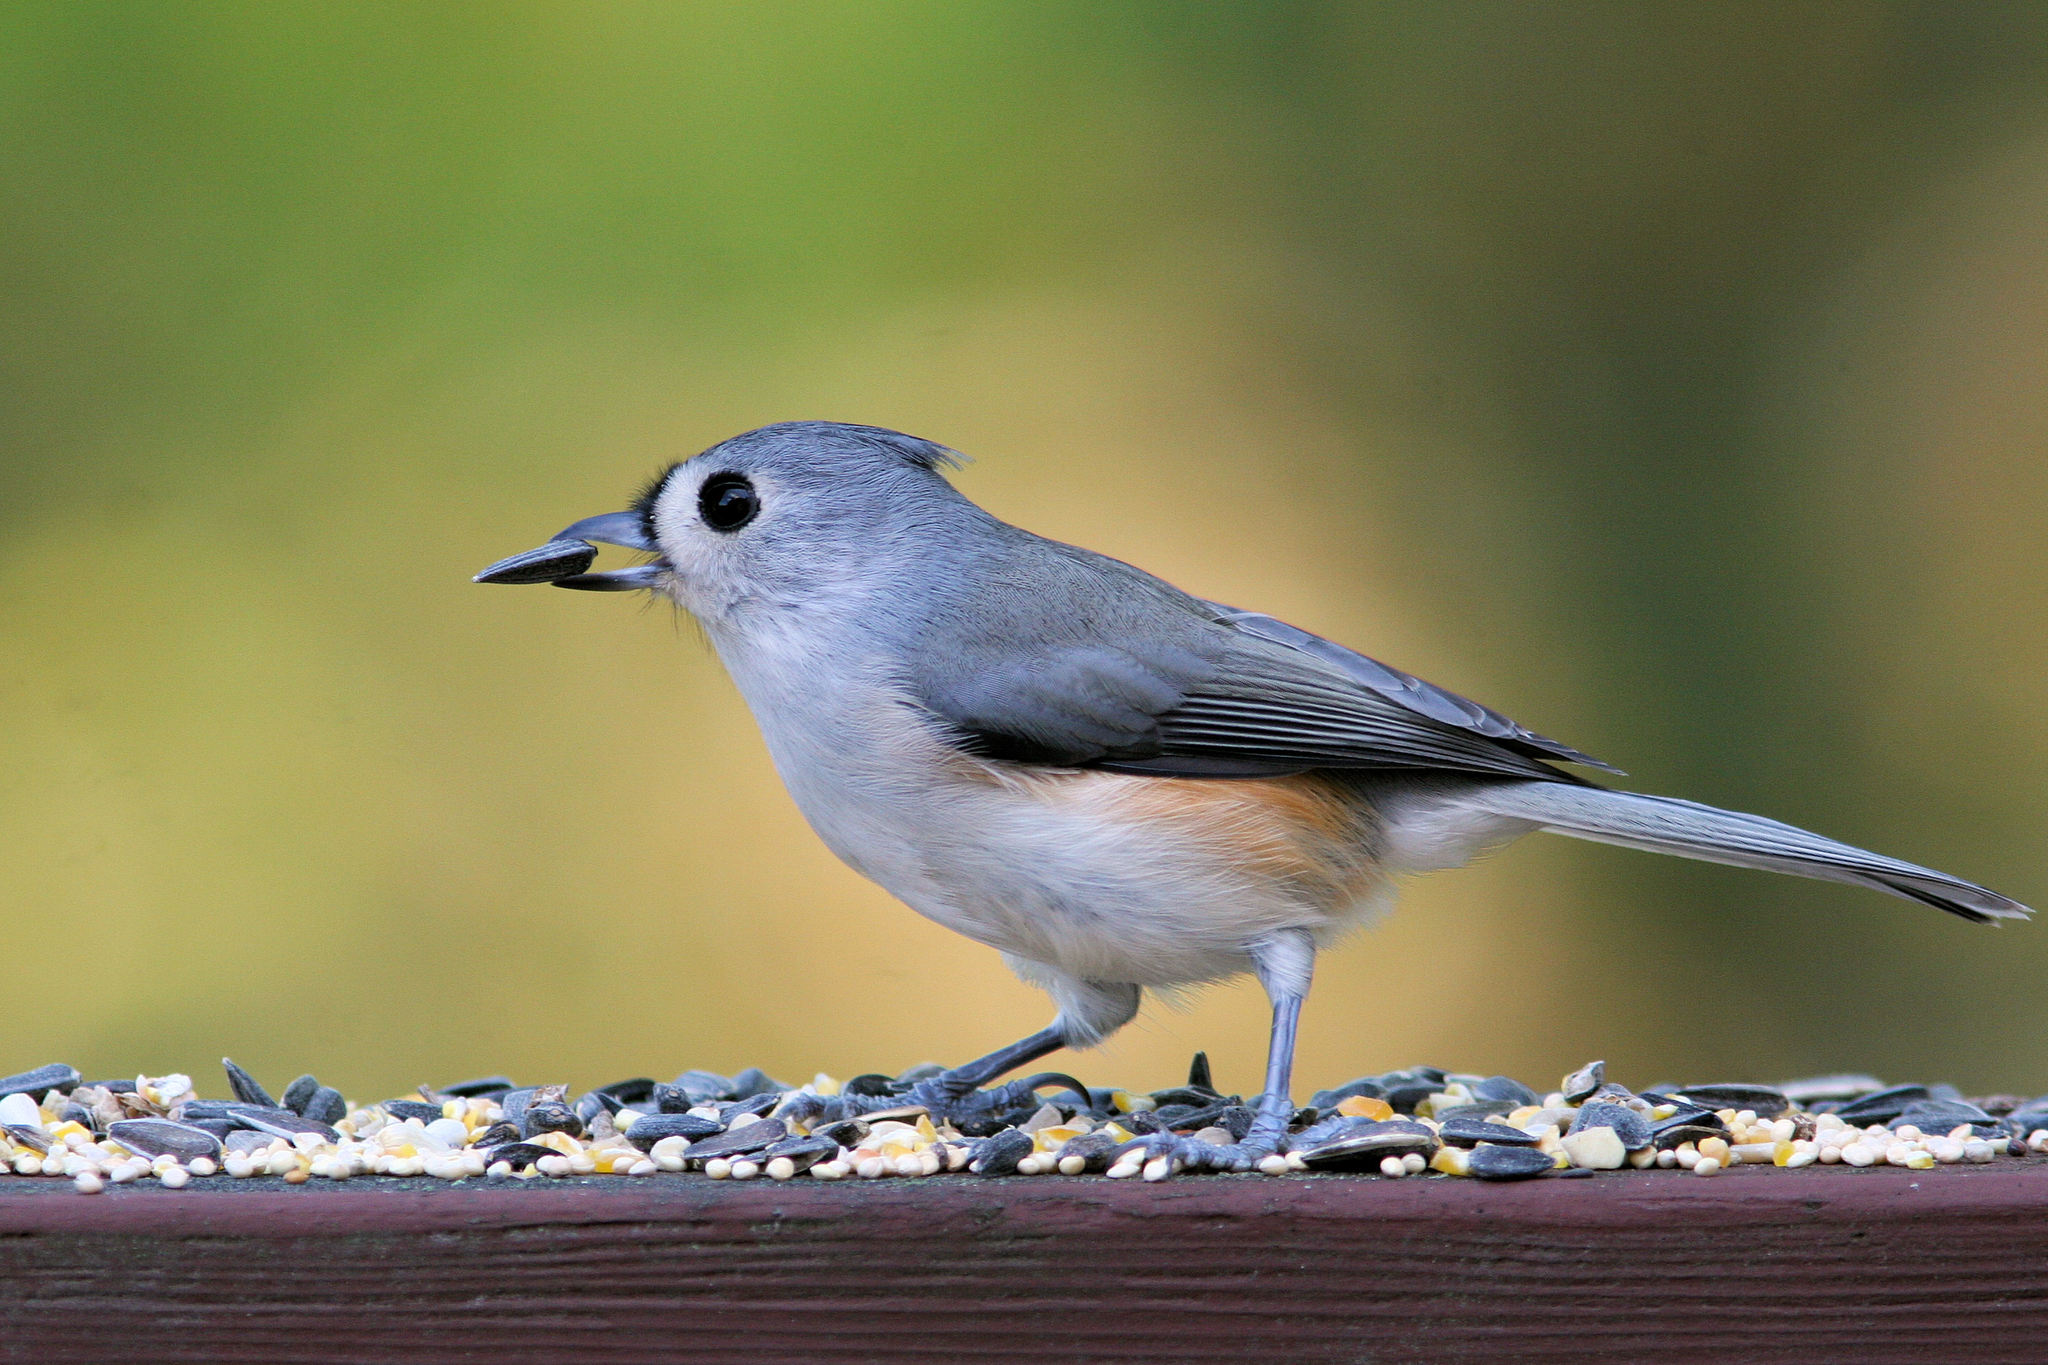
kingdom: Animalia
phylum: Chordata
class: Aves
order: Passeriformes
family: Paridae
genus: Baeolophus
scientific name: Baeolophus bicolor
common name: Tufted titmouse
